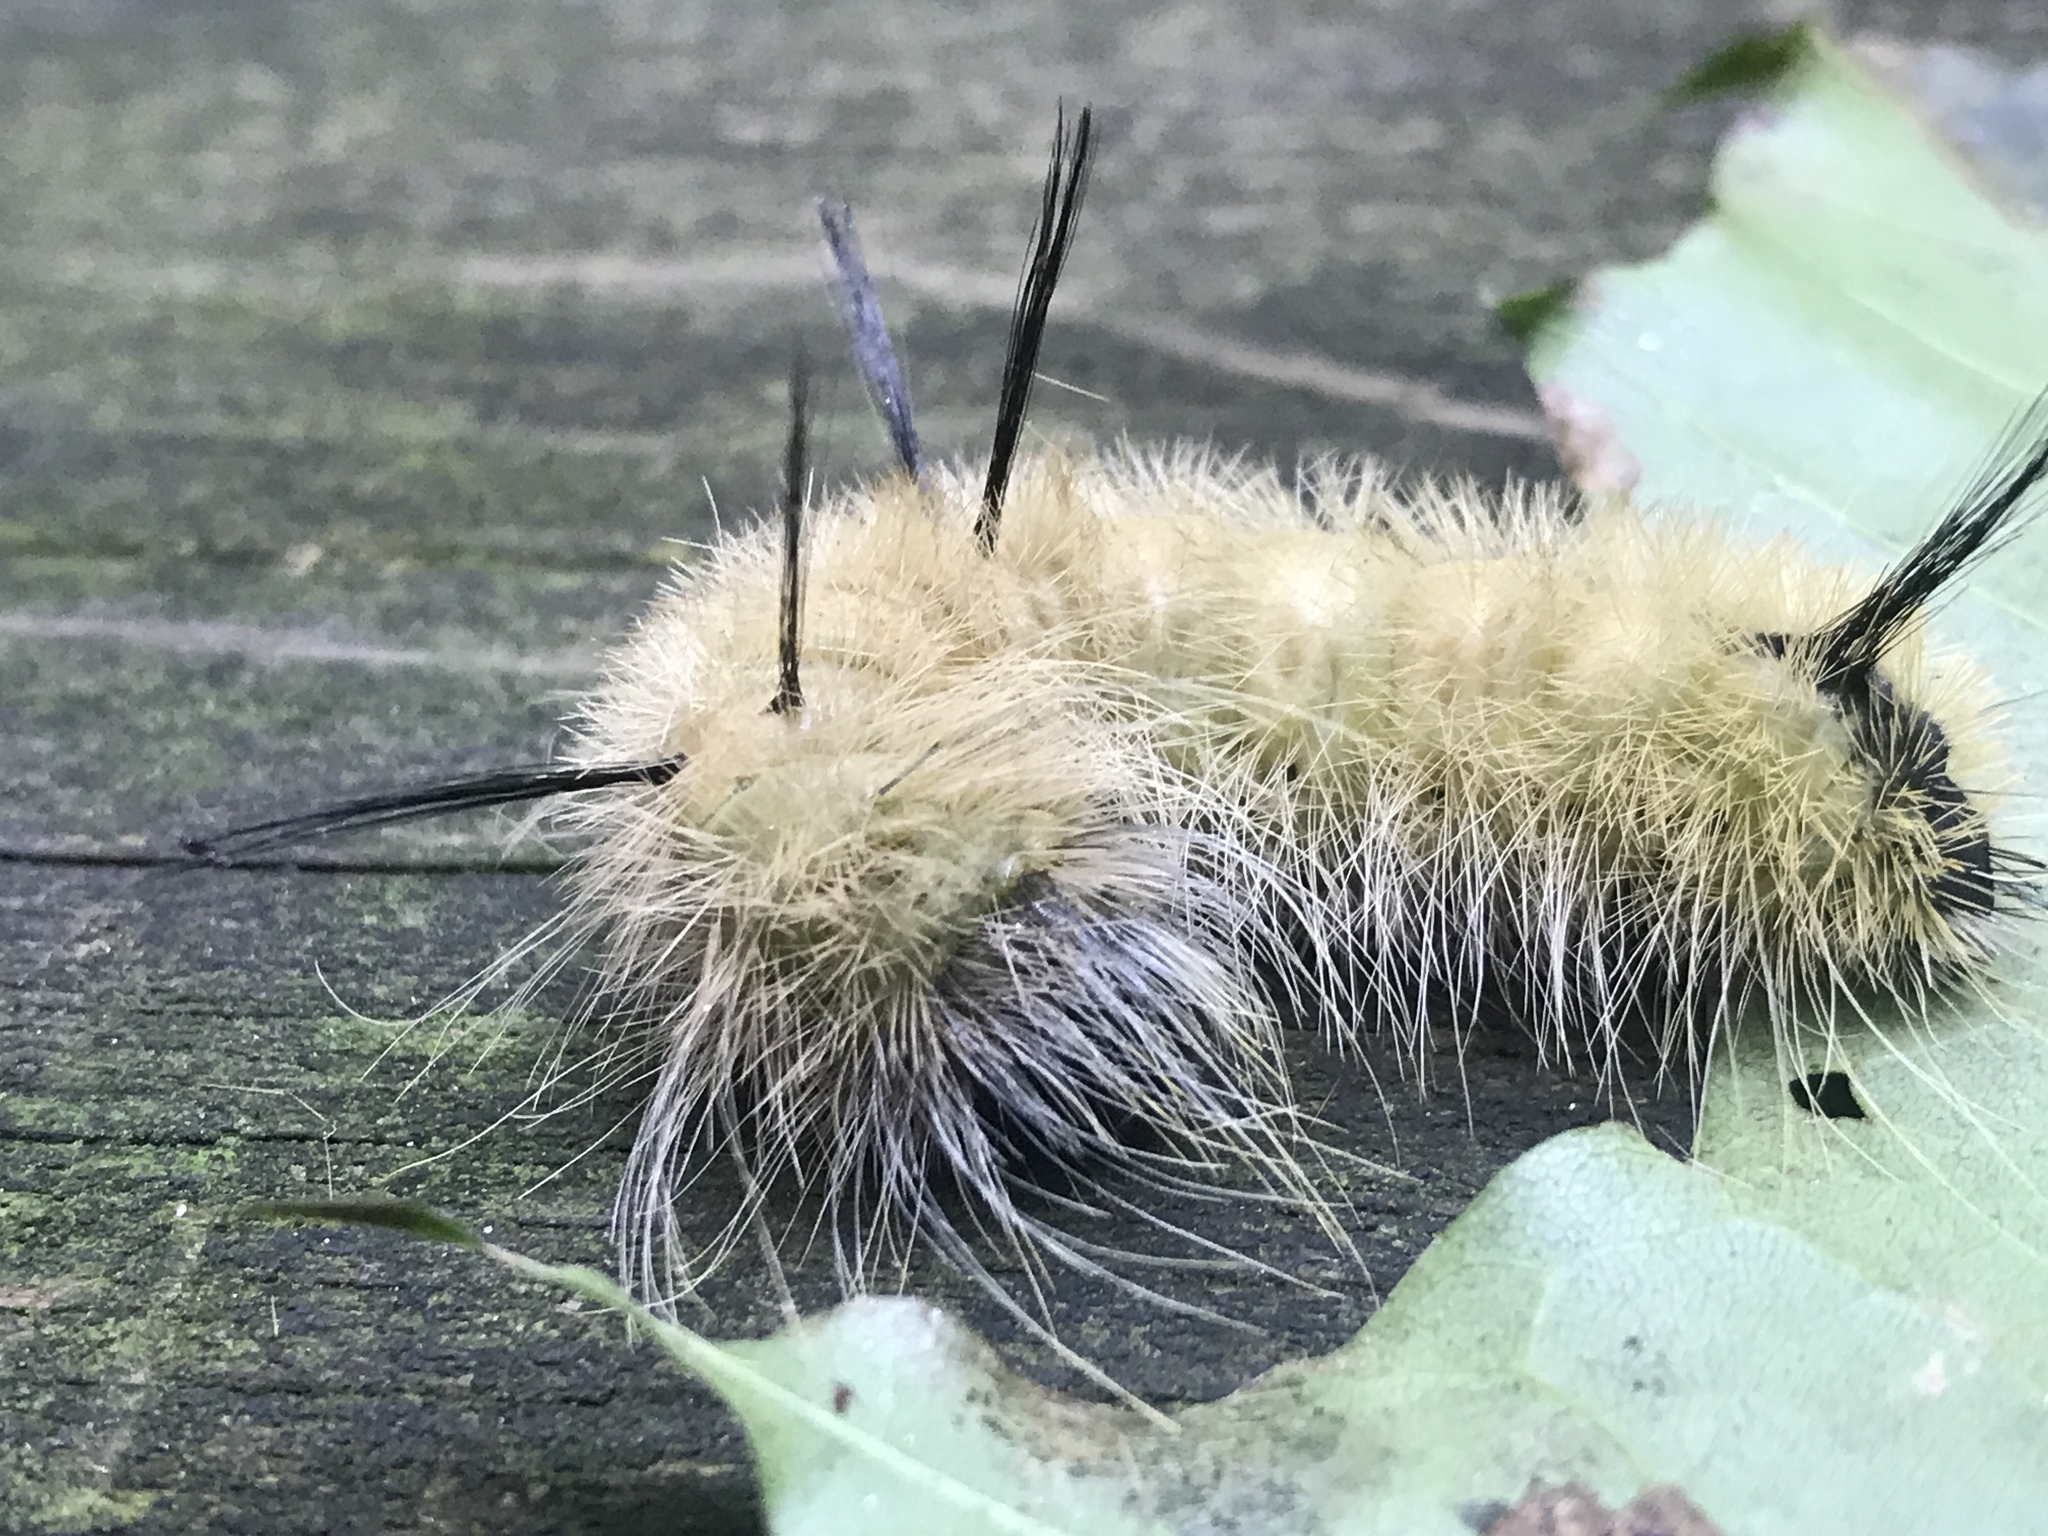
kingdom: Animalia
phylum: Arthropoda
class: Insecta
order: Lepidoptera
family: Noctuidae
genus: Acronicta
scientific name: Acronicta americana
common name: American dagger
